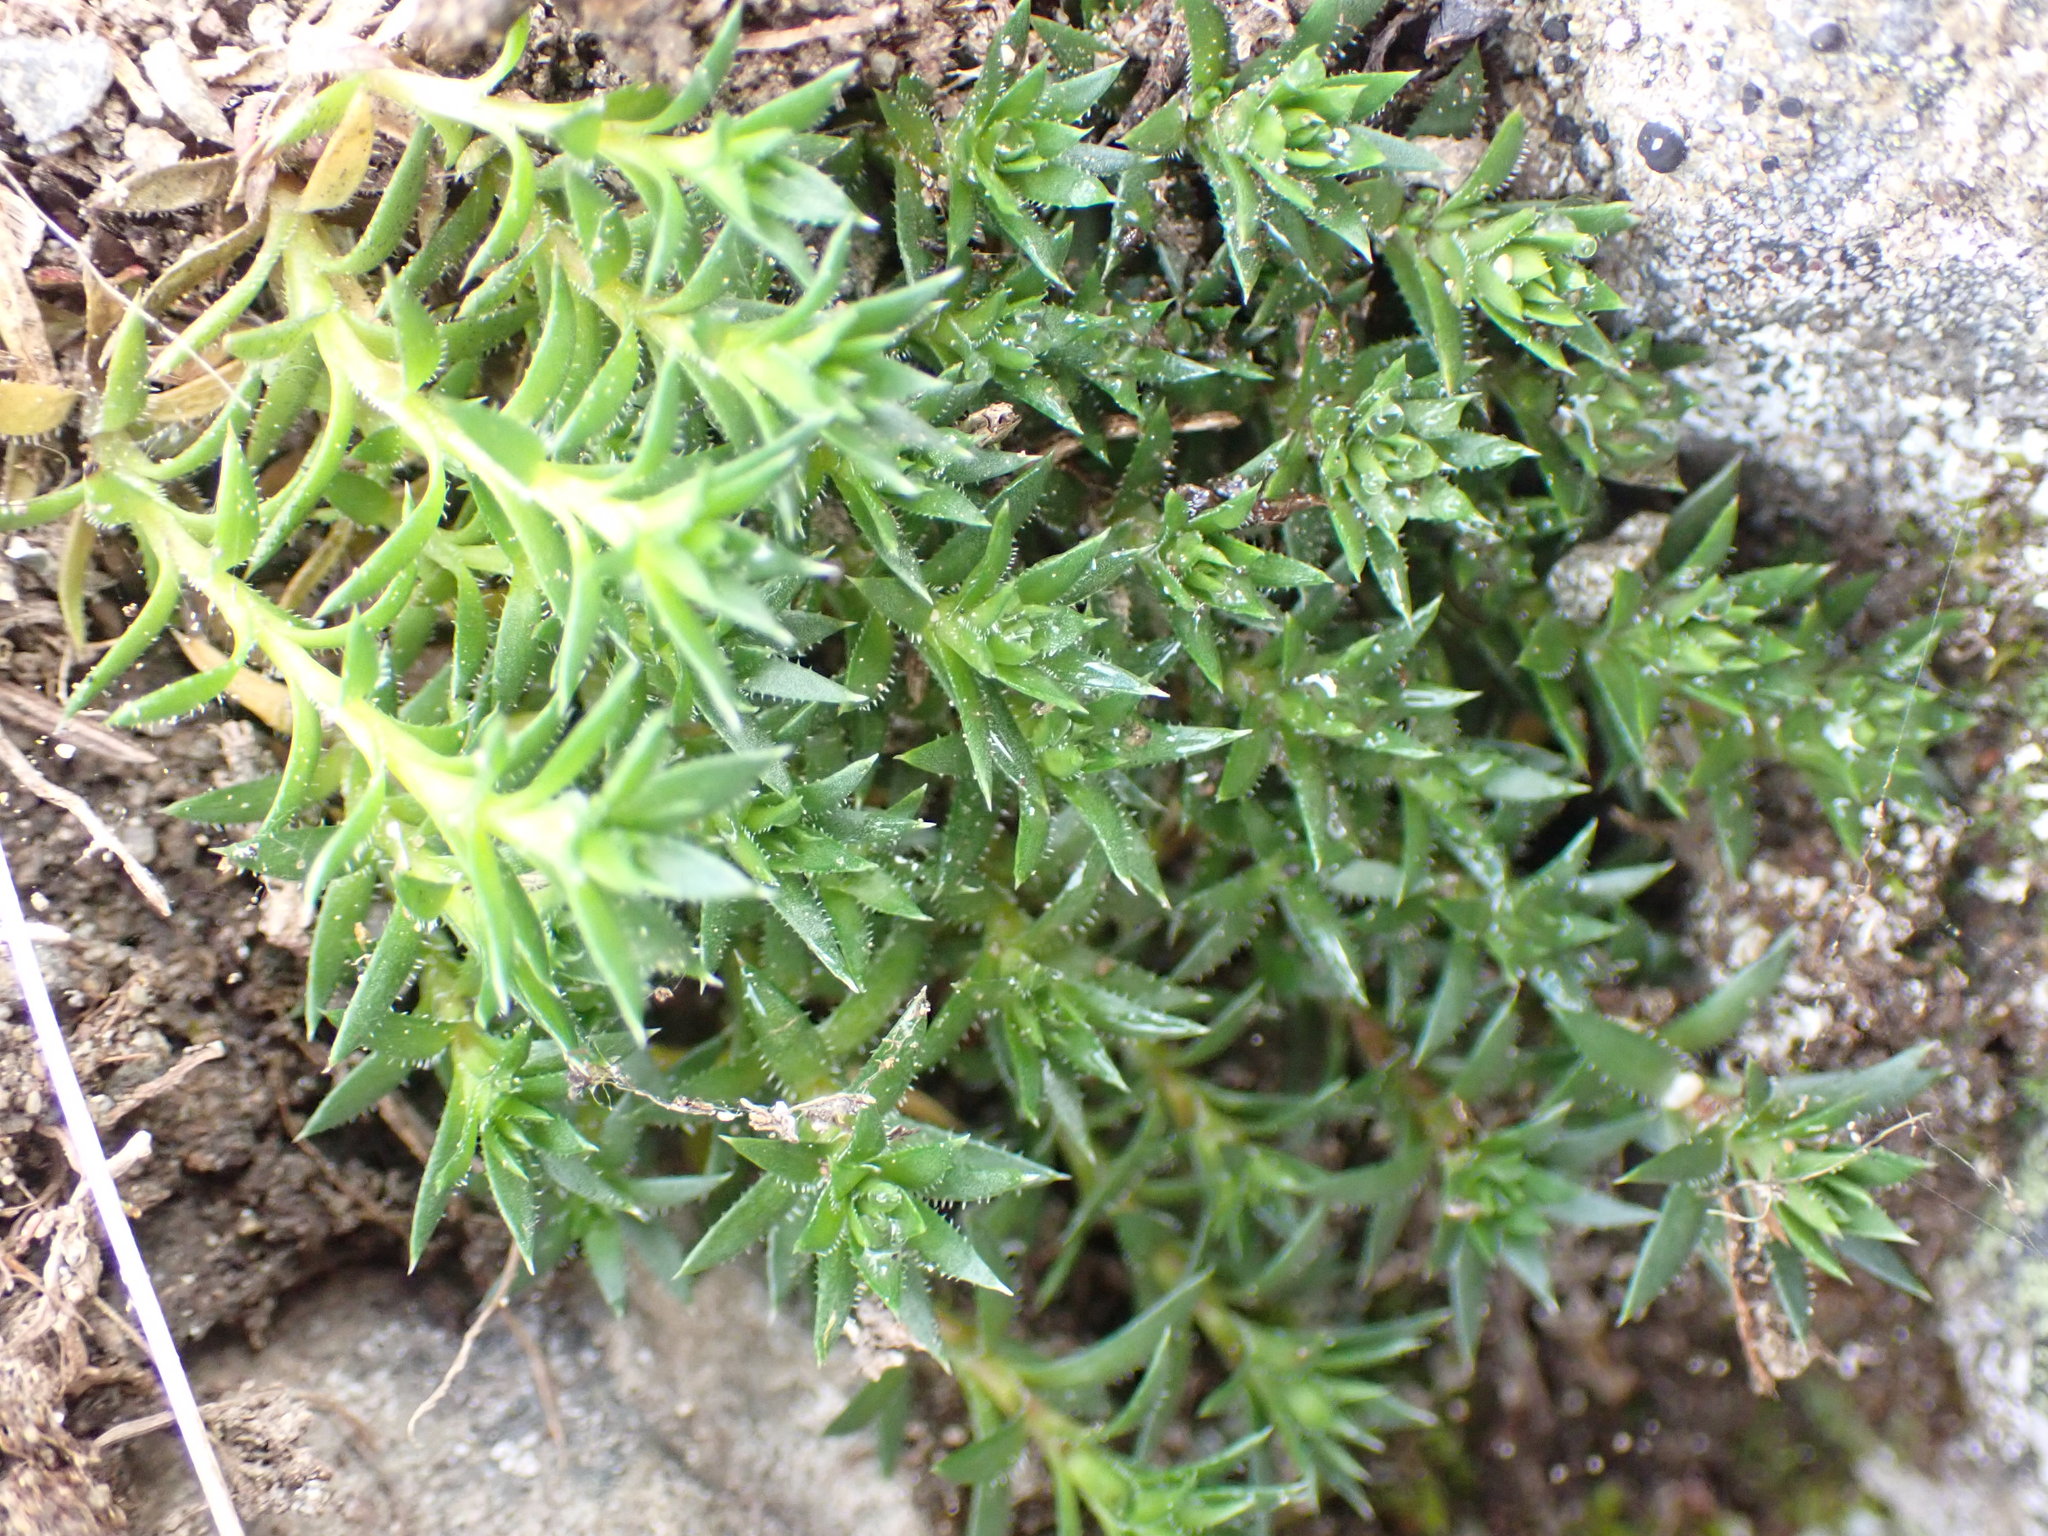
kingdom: Plantae
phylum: Tracheophyta
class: Magnoliopsida
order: Saxifragales
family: Saxifragaceae
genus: Saxifraga
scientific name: Saxifraga bronchialis
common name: Matted saxifrage
